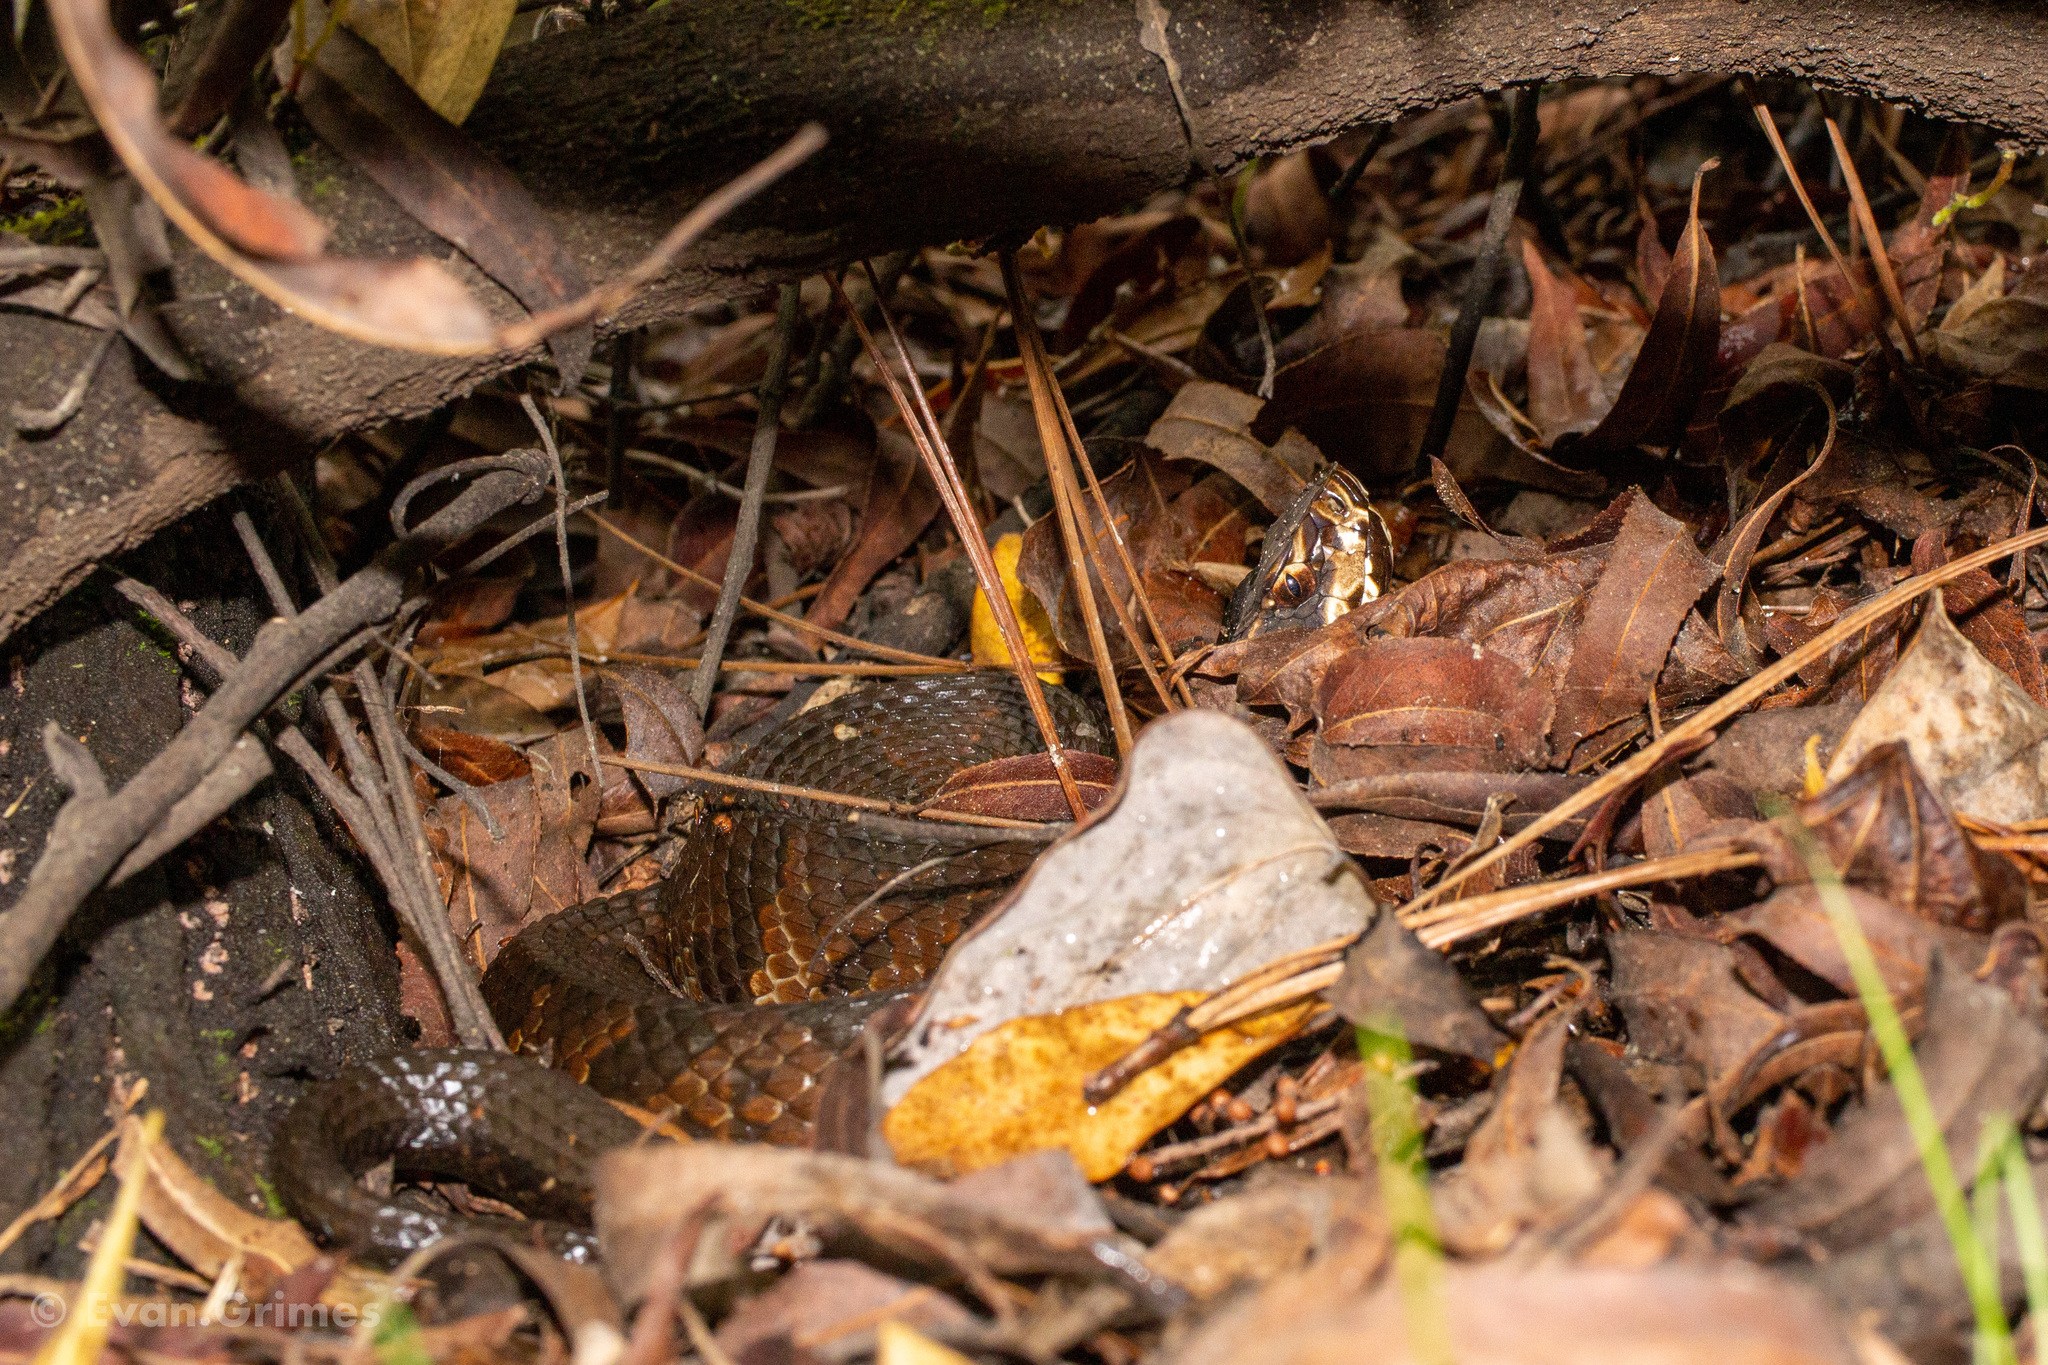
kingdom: Animalia
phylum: Chordata
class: Squamata
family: Viperidae
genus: Agkistrodon
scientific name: Agkistrodon conanti
